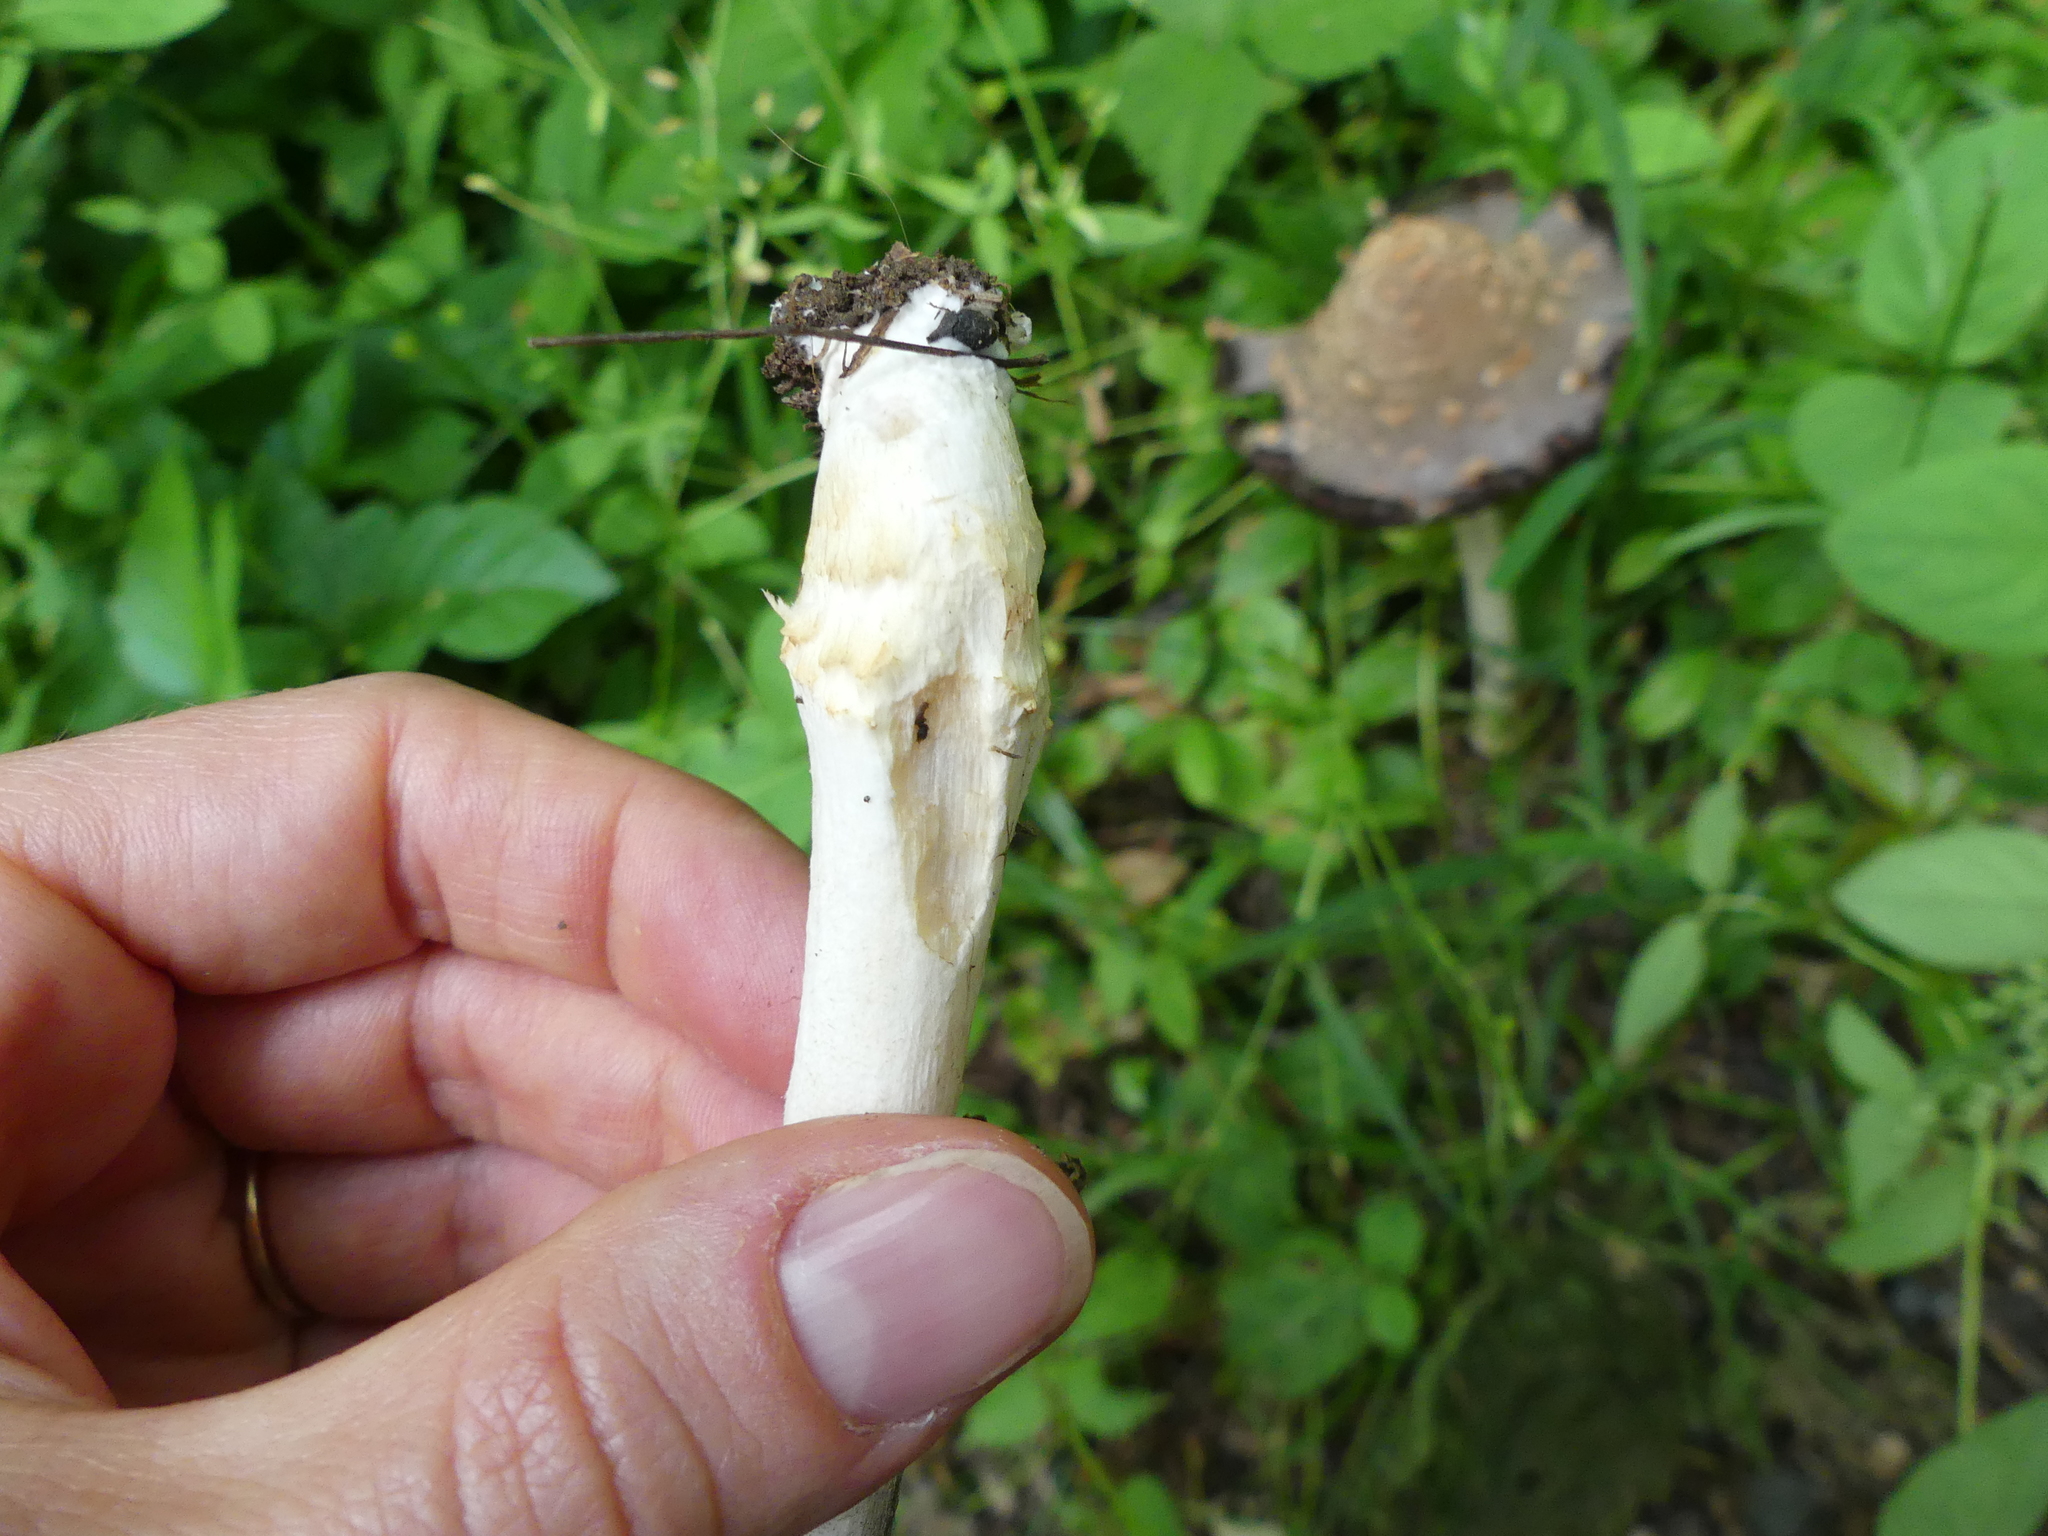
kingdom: Fungi
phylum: Basidiomycota
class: Agaricomycetes
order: Agaricales
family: Psathyrellaceae
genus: Coprinopsis
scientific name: Coprinopsis variegata
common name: Scaly ink cap
